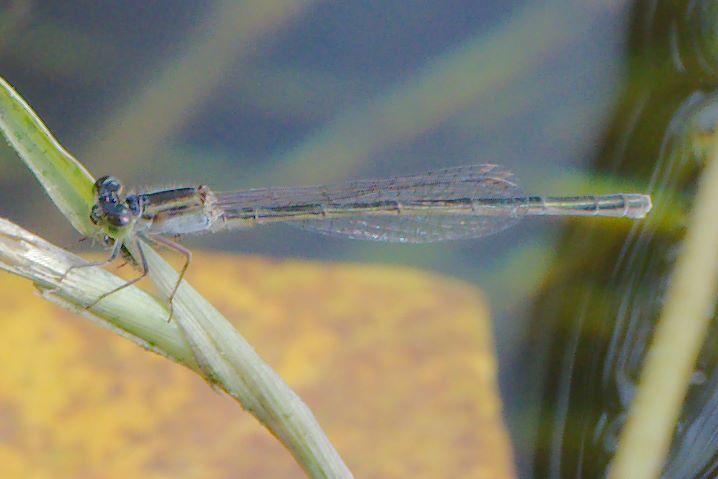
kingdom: Animalia
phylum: Arthropoda
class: Insecta
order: Odonata
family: Coenagrionidae
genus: Ischnura
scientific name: Ischnura ramburii
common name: Rambur's forktail
